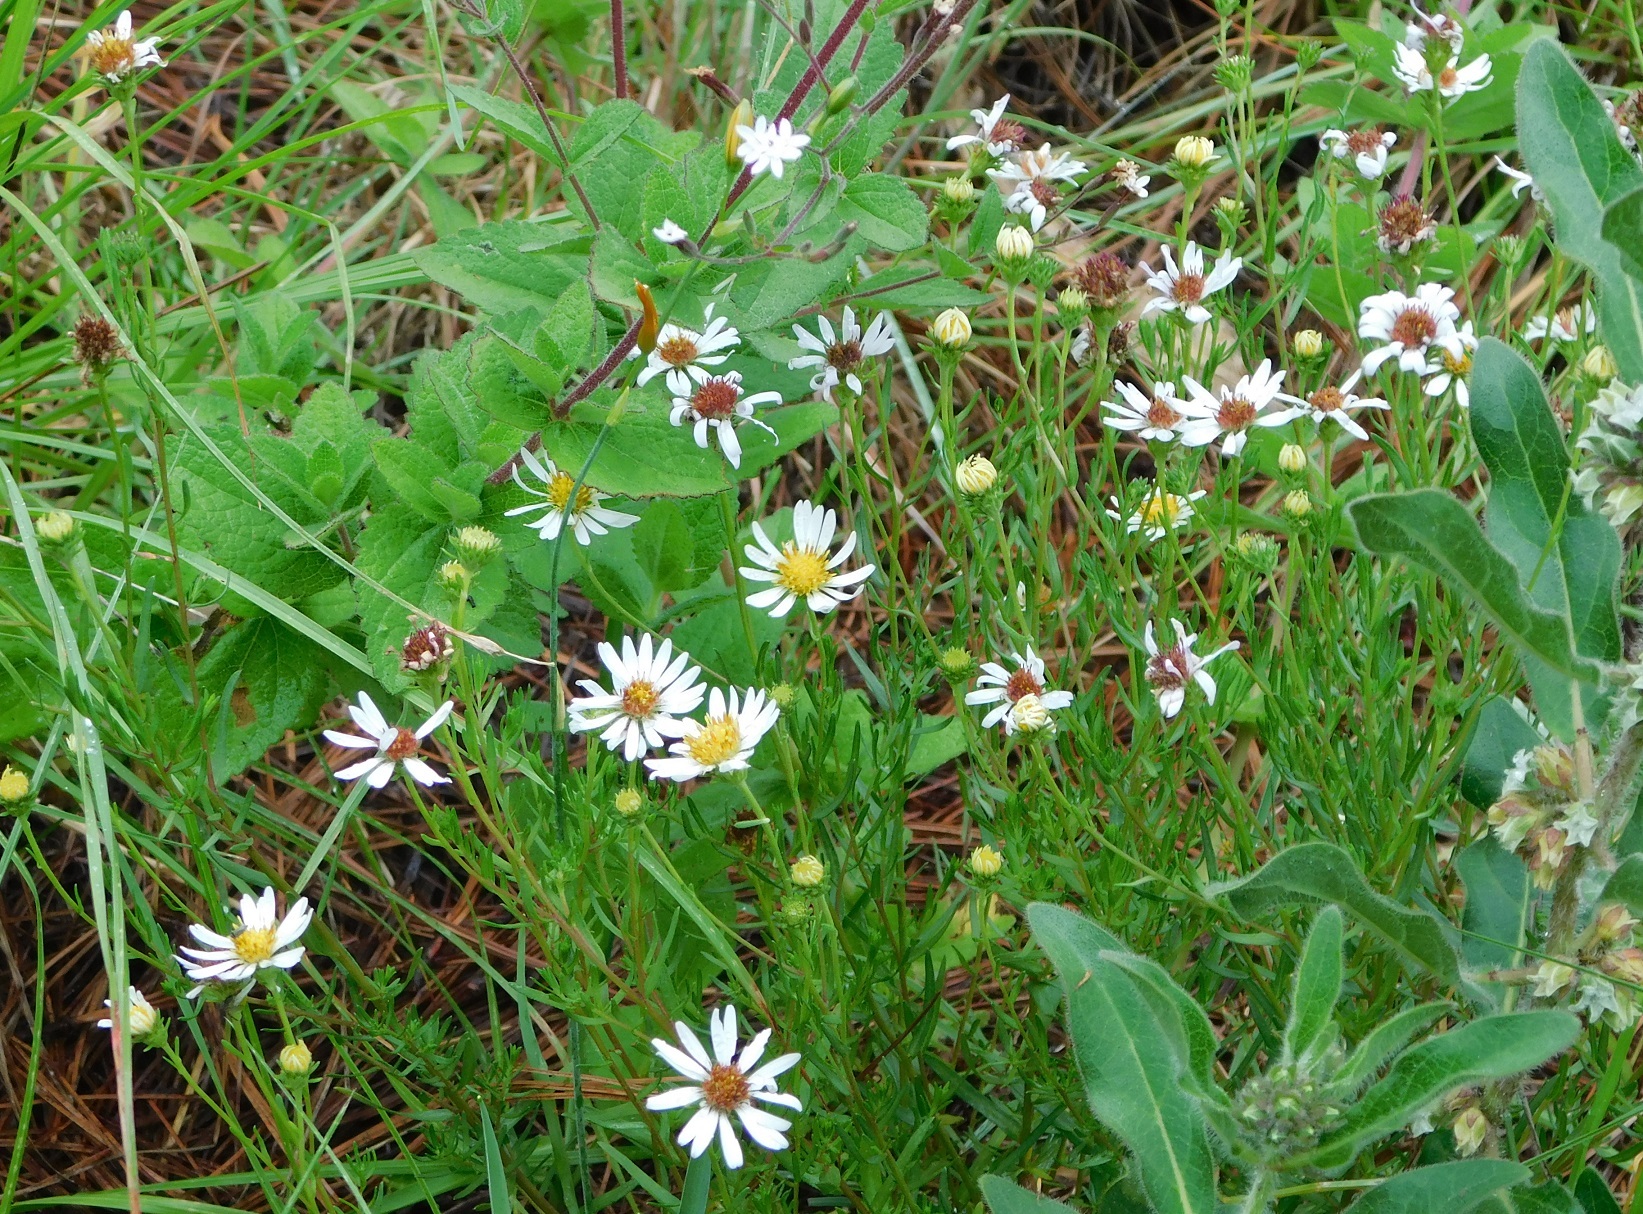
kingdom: Plantae
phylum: Tracheophyta
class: Magnoliopsida
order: Asterales
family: Asteraceae
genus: Symphyotrichum
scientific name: Symphyotrichum trilineatum
